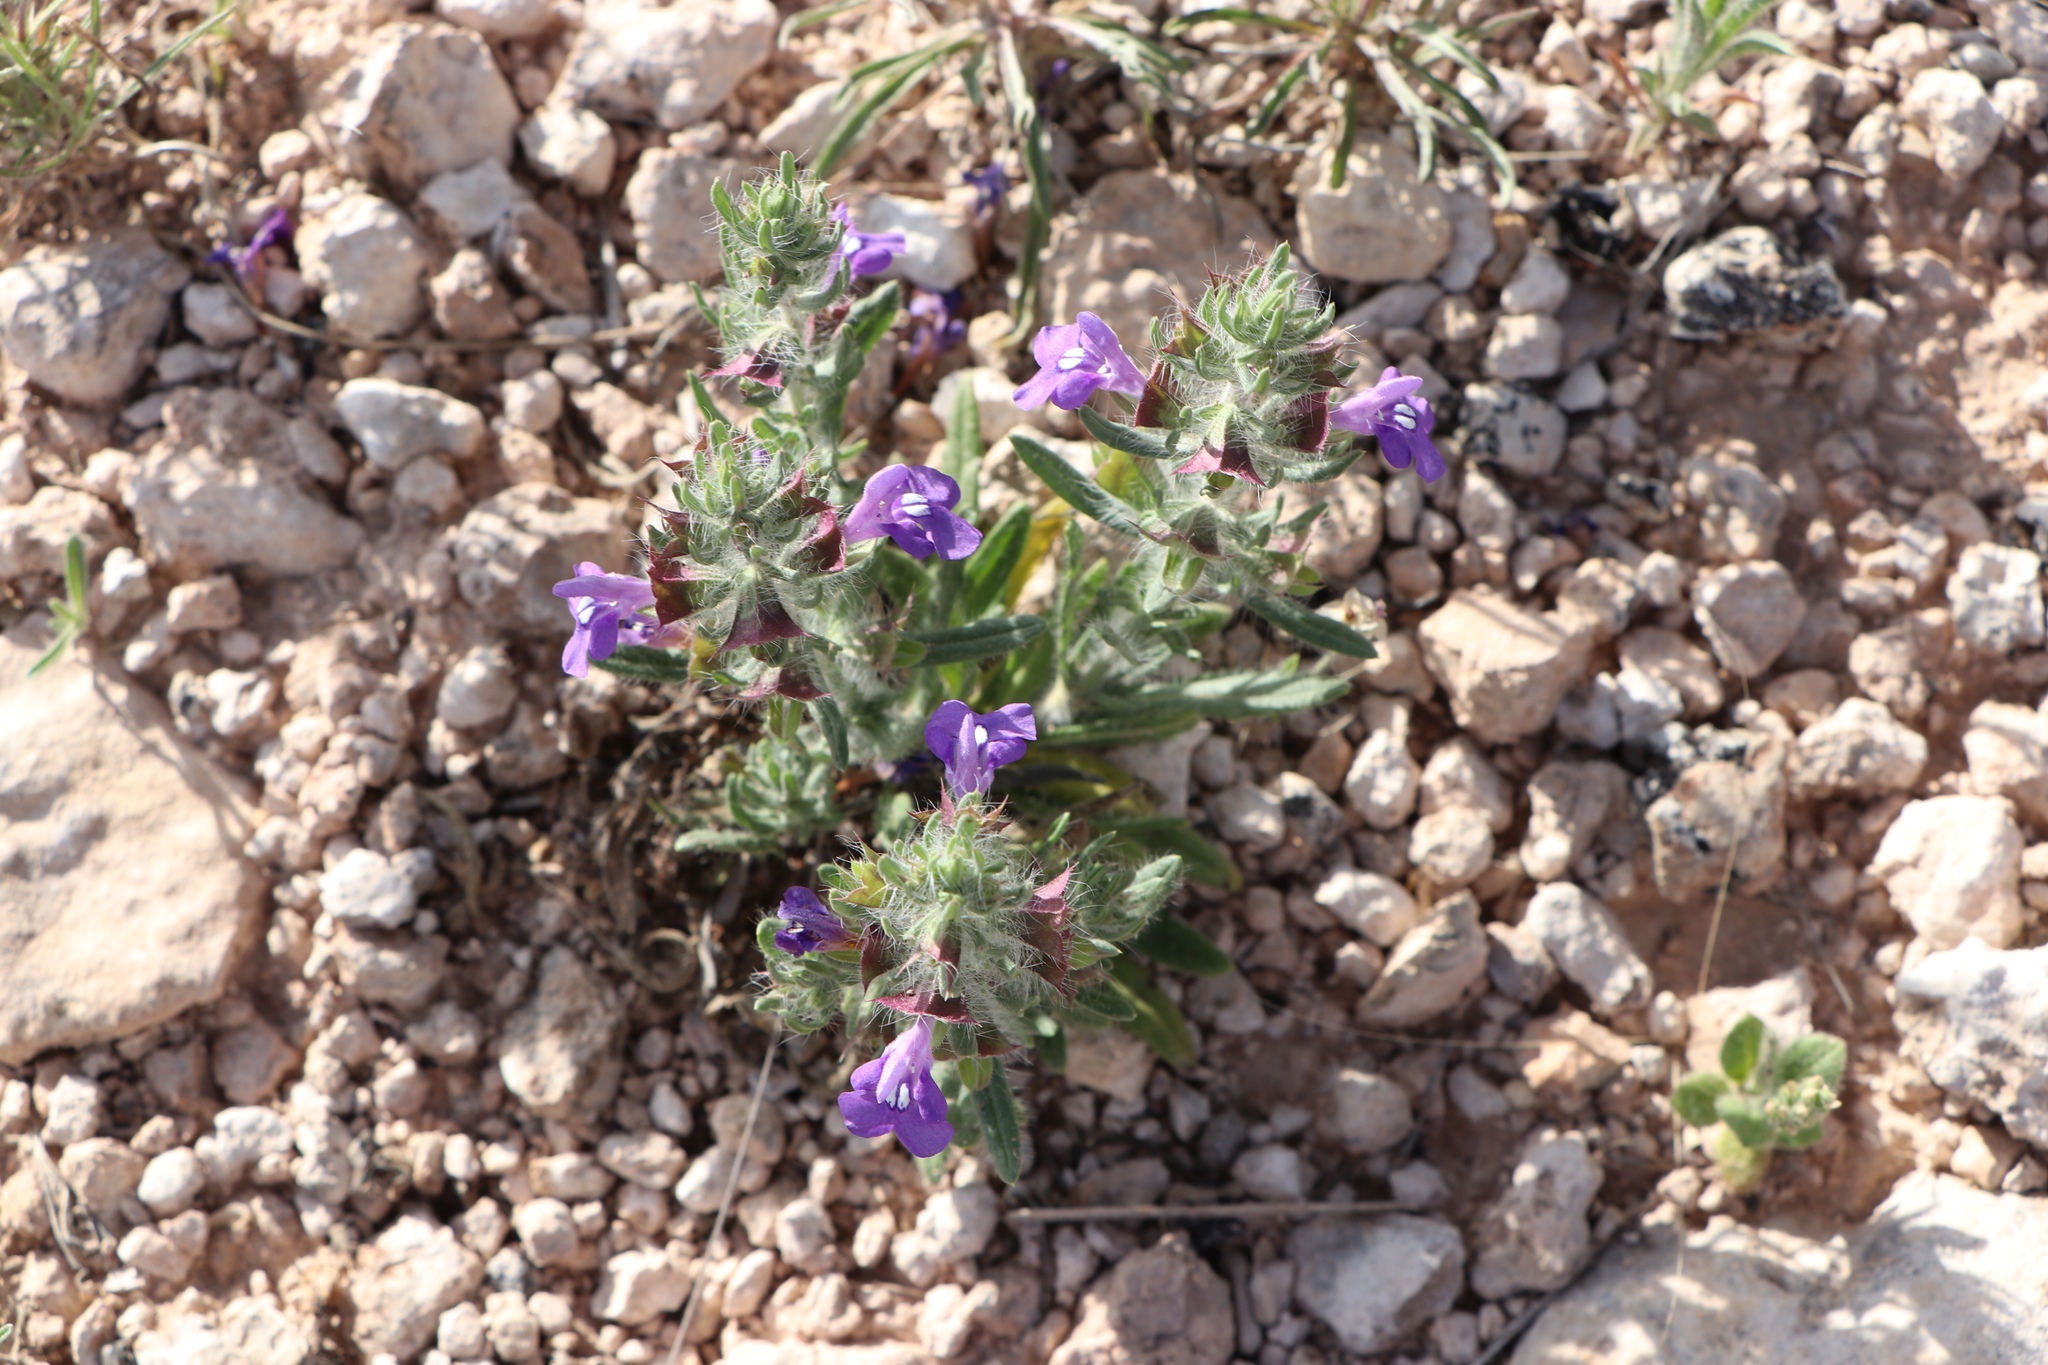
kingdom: Plantae
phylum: Tracheophyta
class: Magnoliopsida
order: Lamiales
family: Lamiaceae
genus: Salvia
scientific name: Salvia texana
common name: Texas sage
